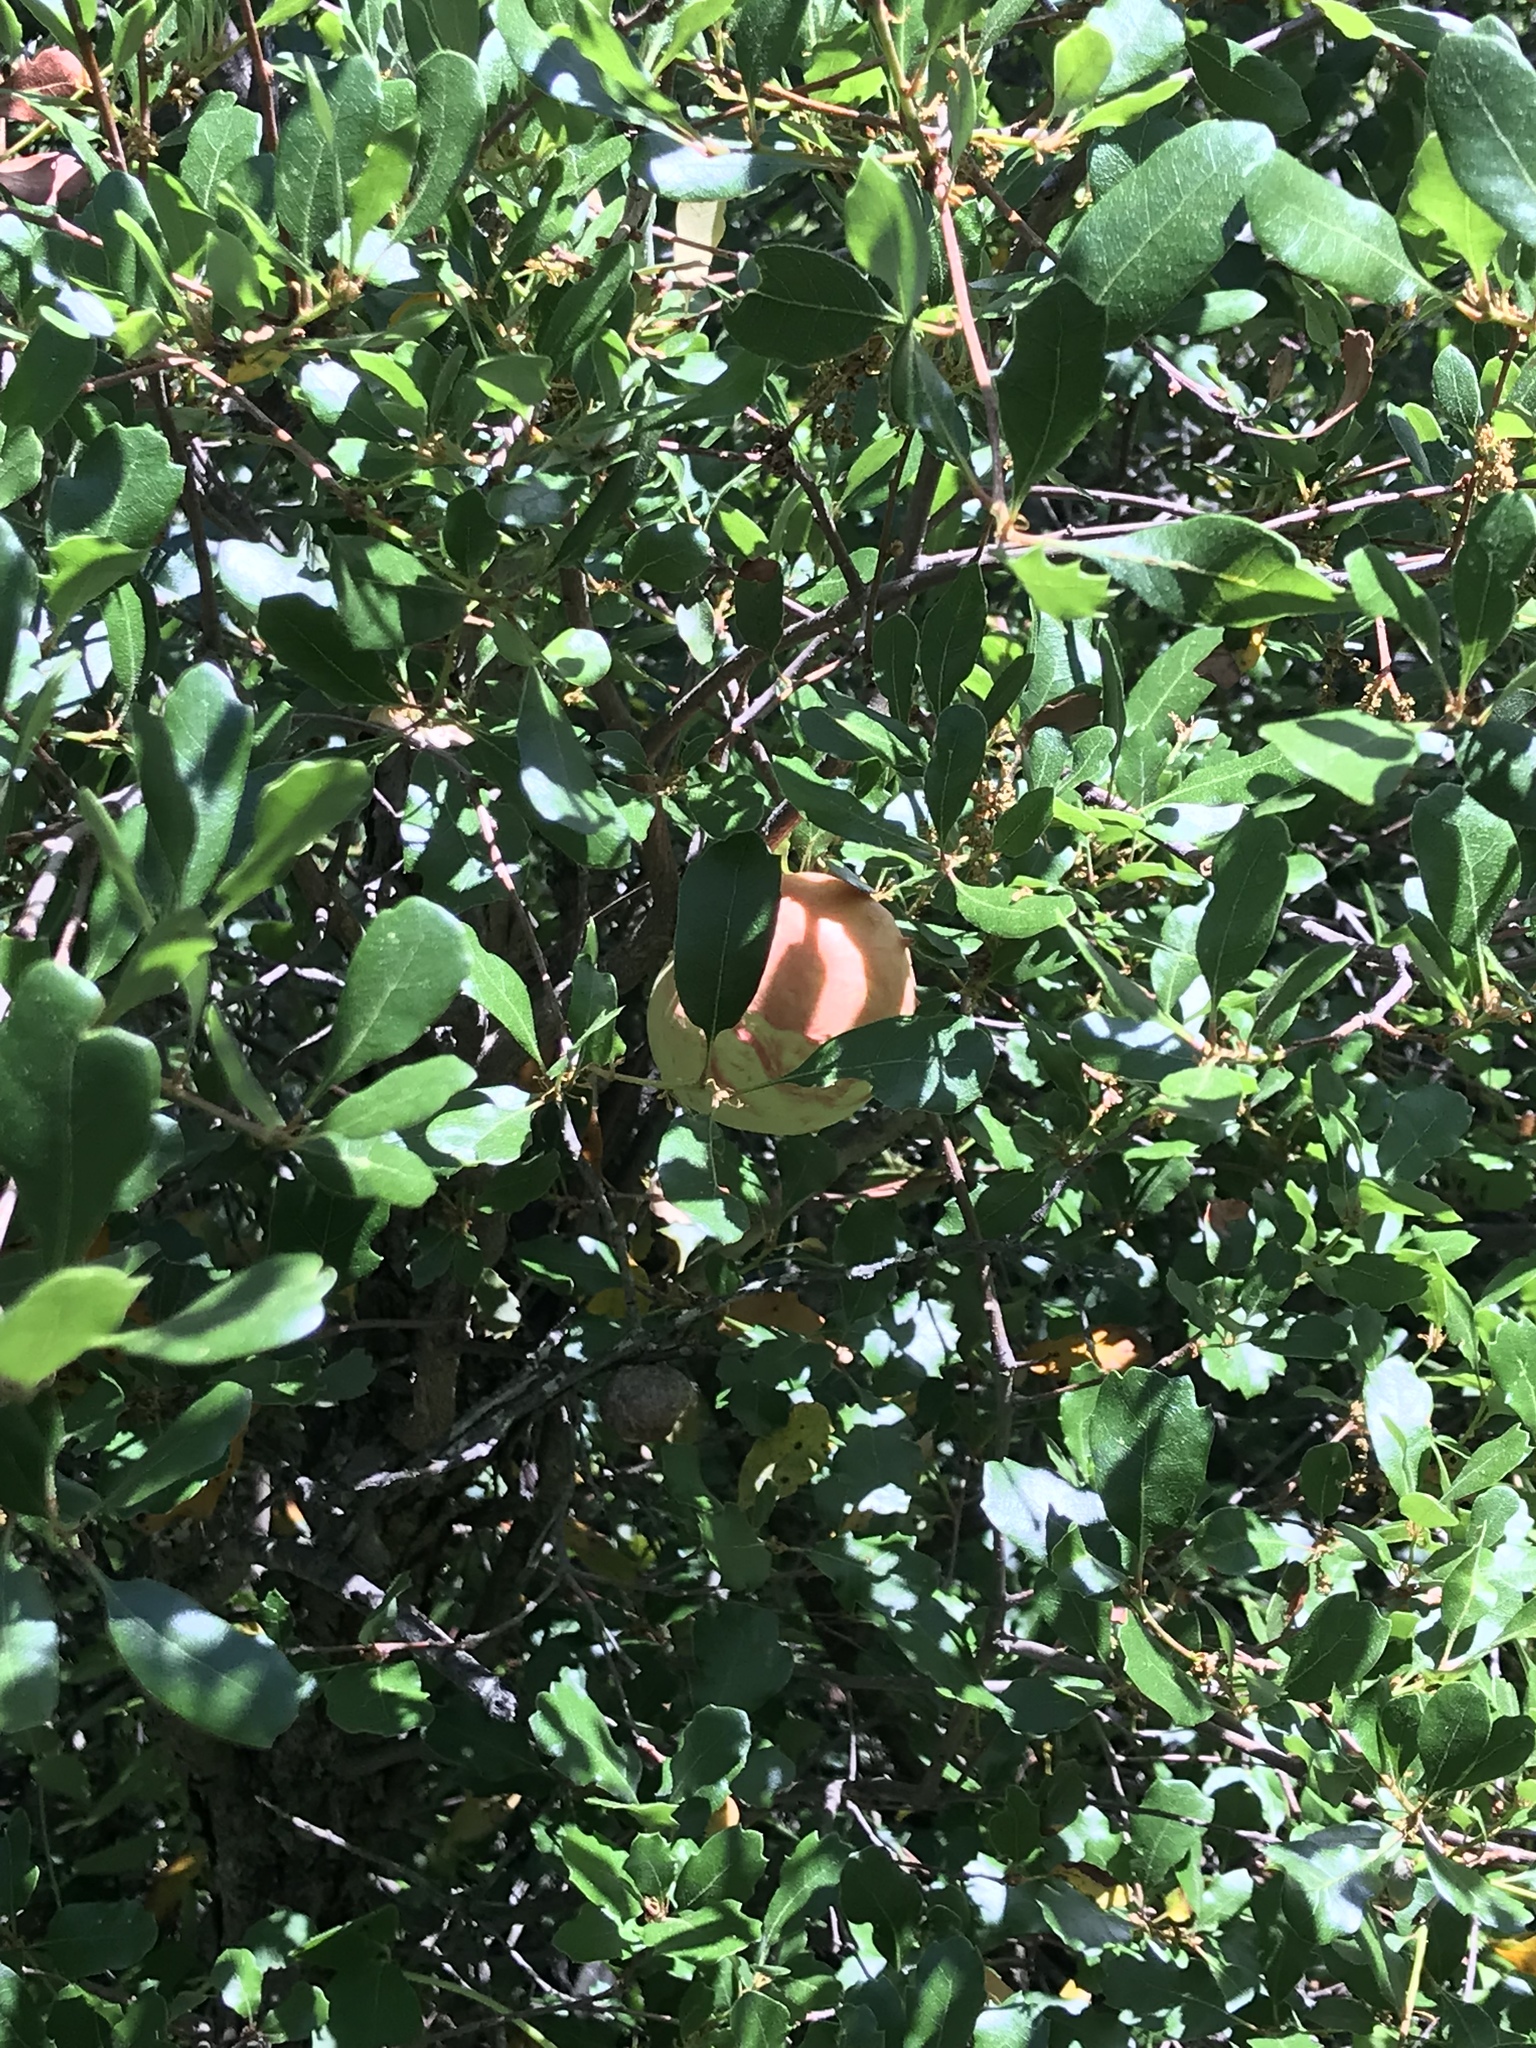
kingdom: Animalia
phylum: Arthropoda
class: Insecta
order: Hymenoptera
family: Cynipidae
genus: Andricus
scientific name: Andricus quercuscalifornicus
